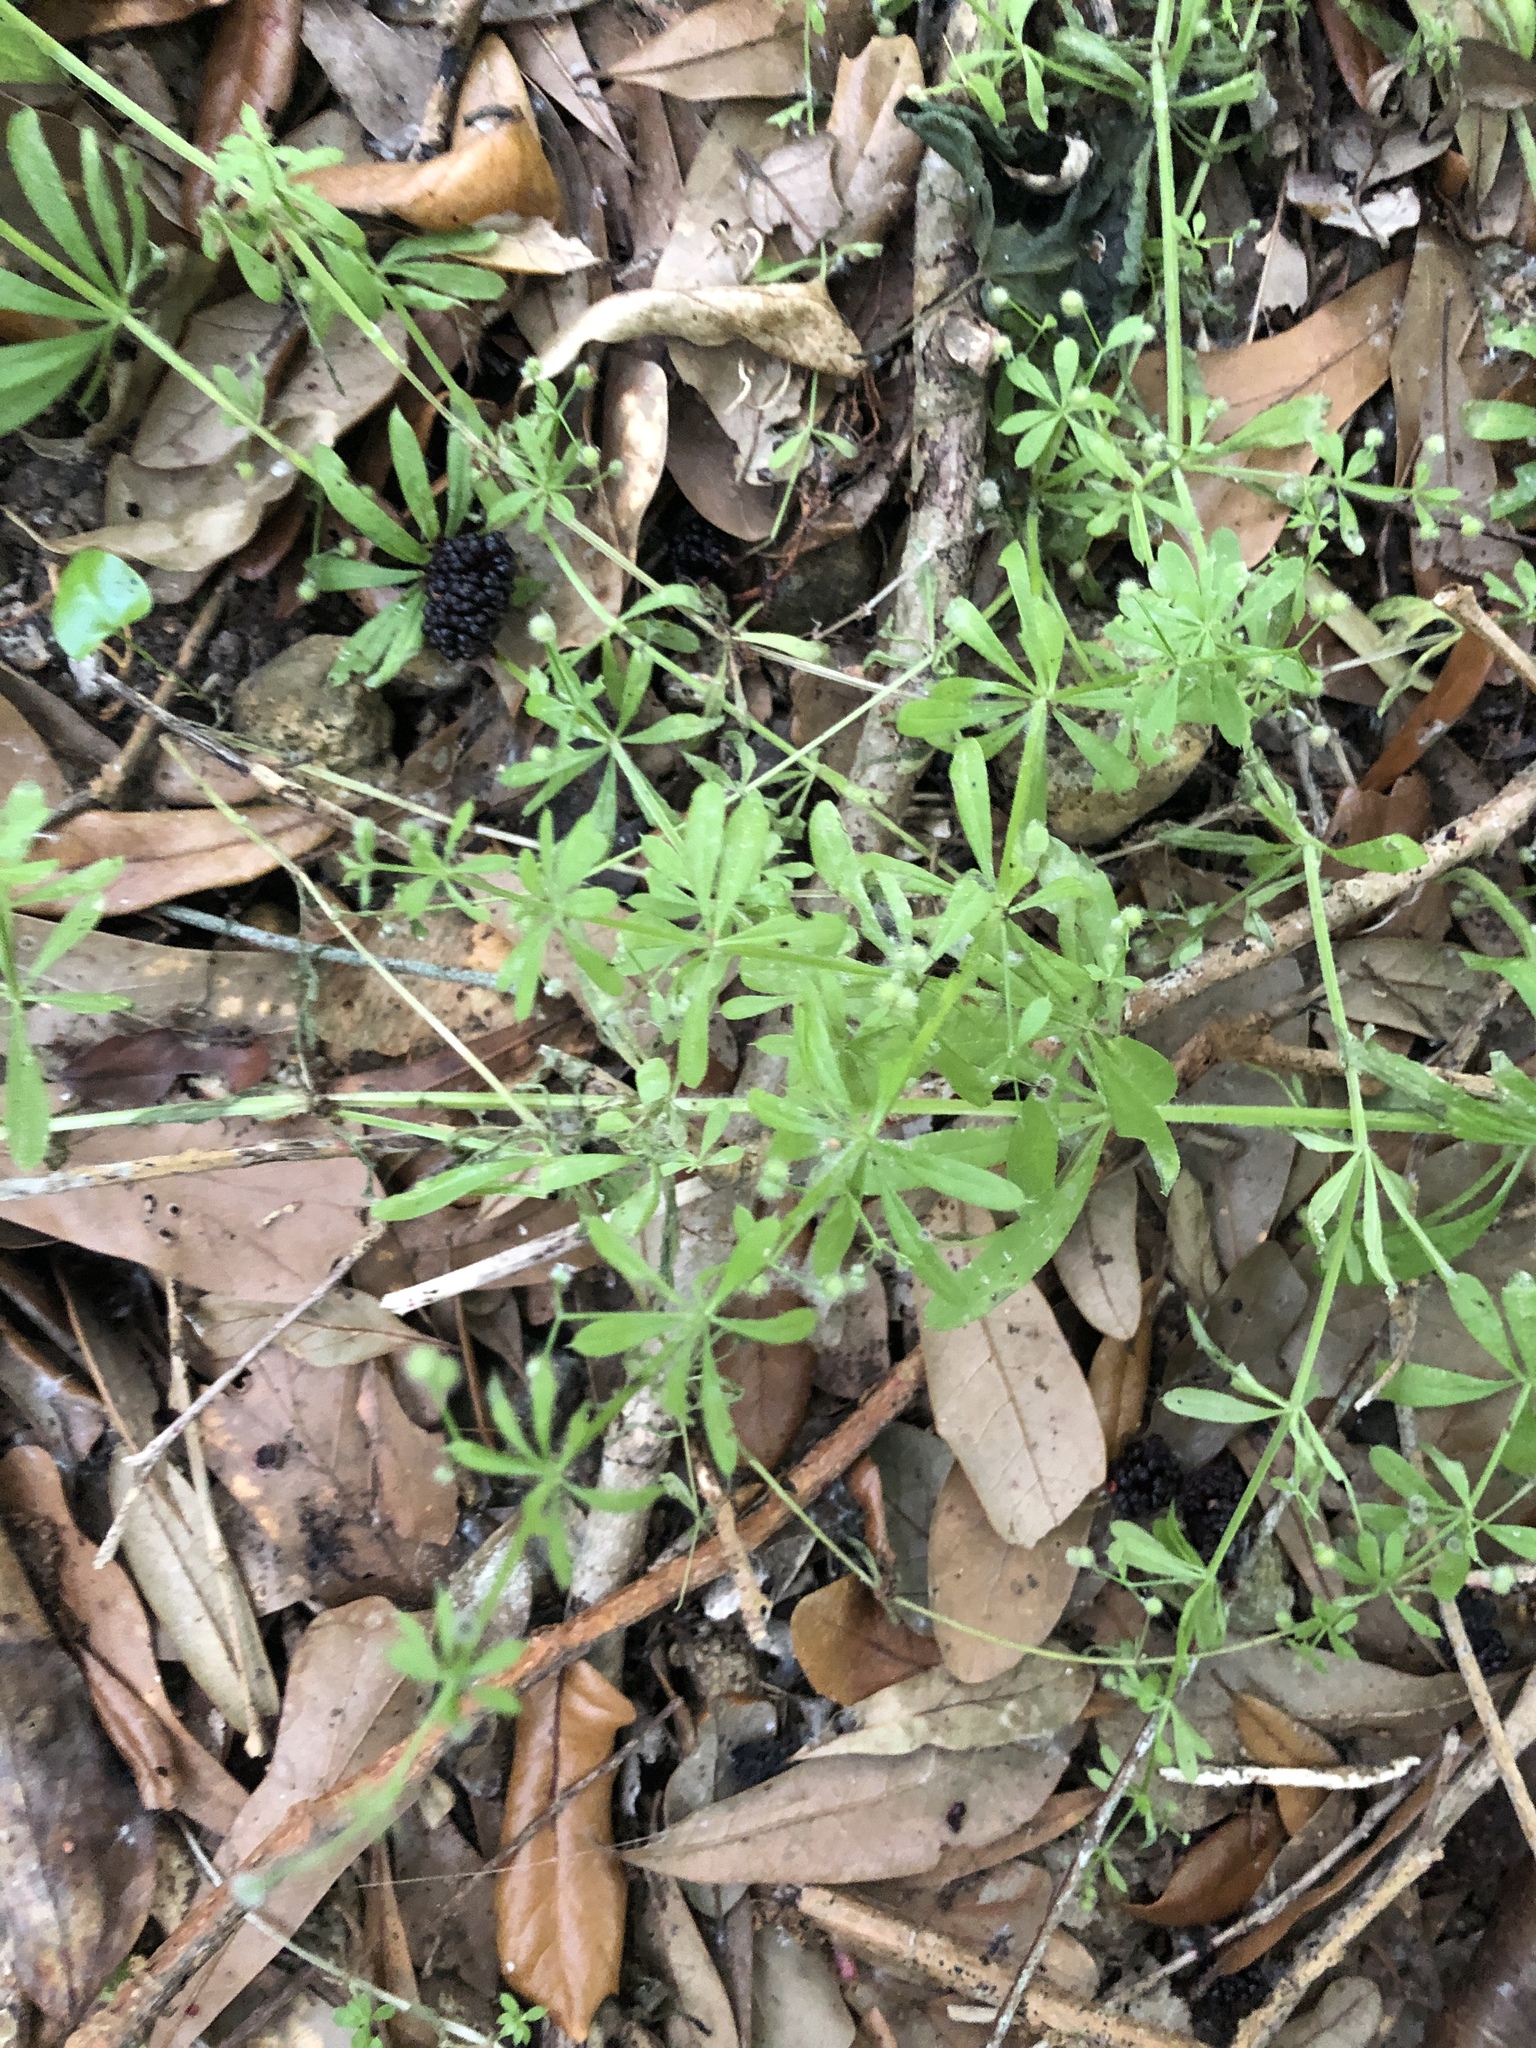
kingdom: Plantae
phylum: Tracheophyta
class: Magnoliopsida
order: Gentianales
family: Rubiaceae
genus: Galium
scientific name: Galium aparine
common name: Cleavers
